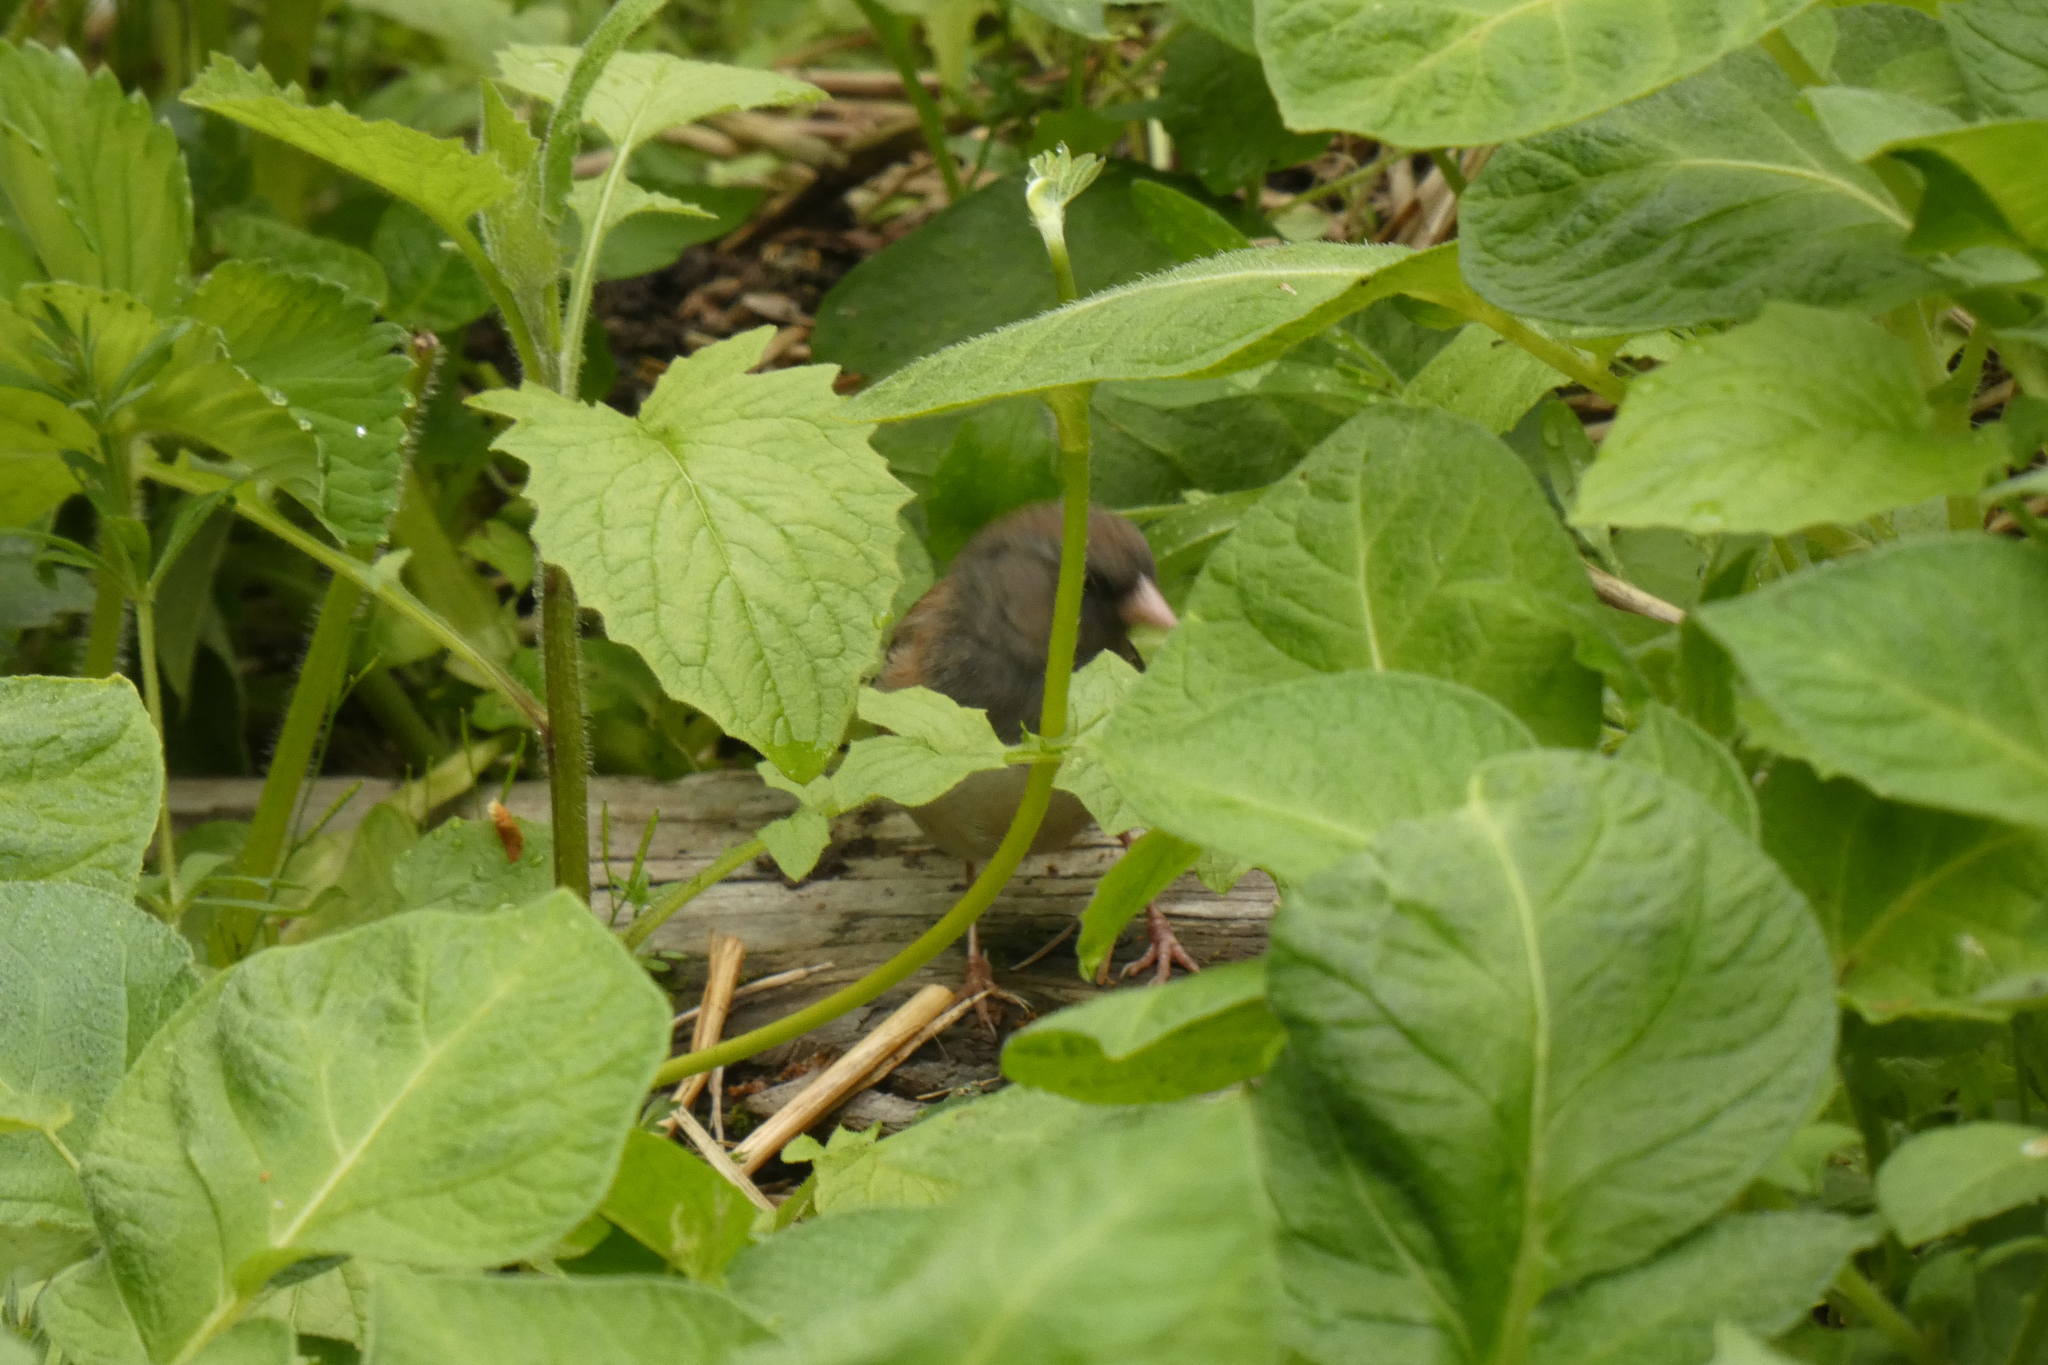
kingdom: Animalia
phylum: Chordata
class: Aves
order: Passeriformes
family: Passerellidae
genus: Junco
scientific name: Junco hyemalis
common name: Dark-eyed junco
